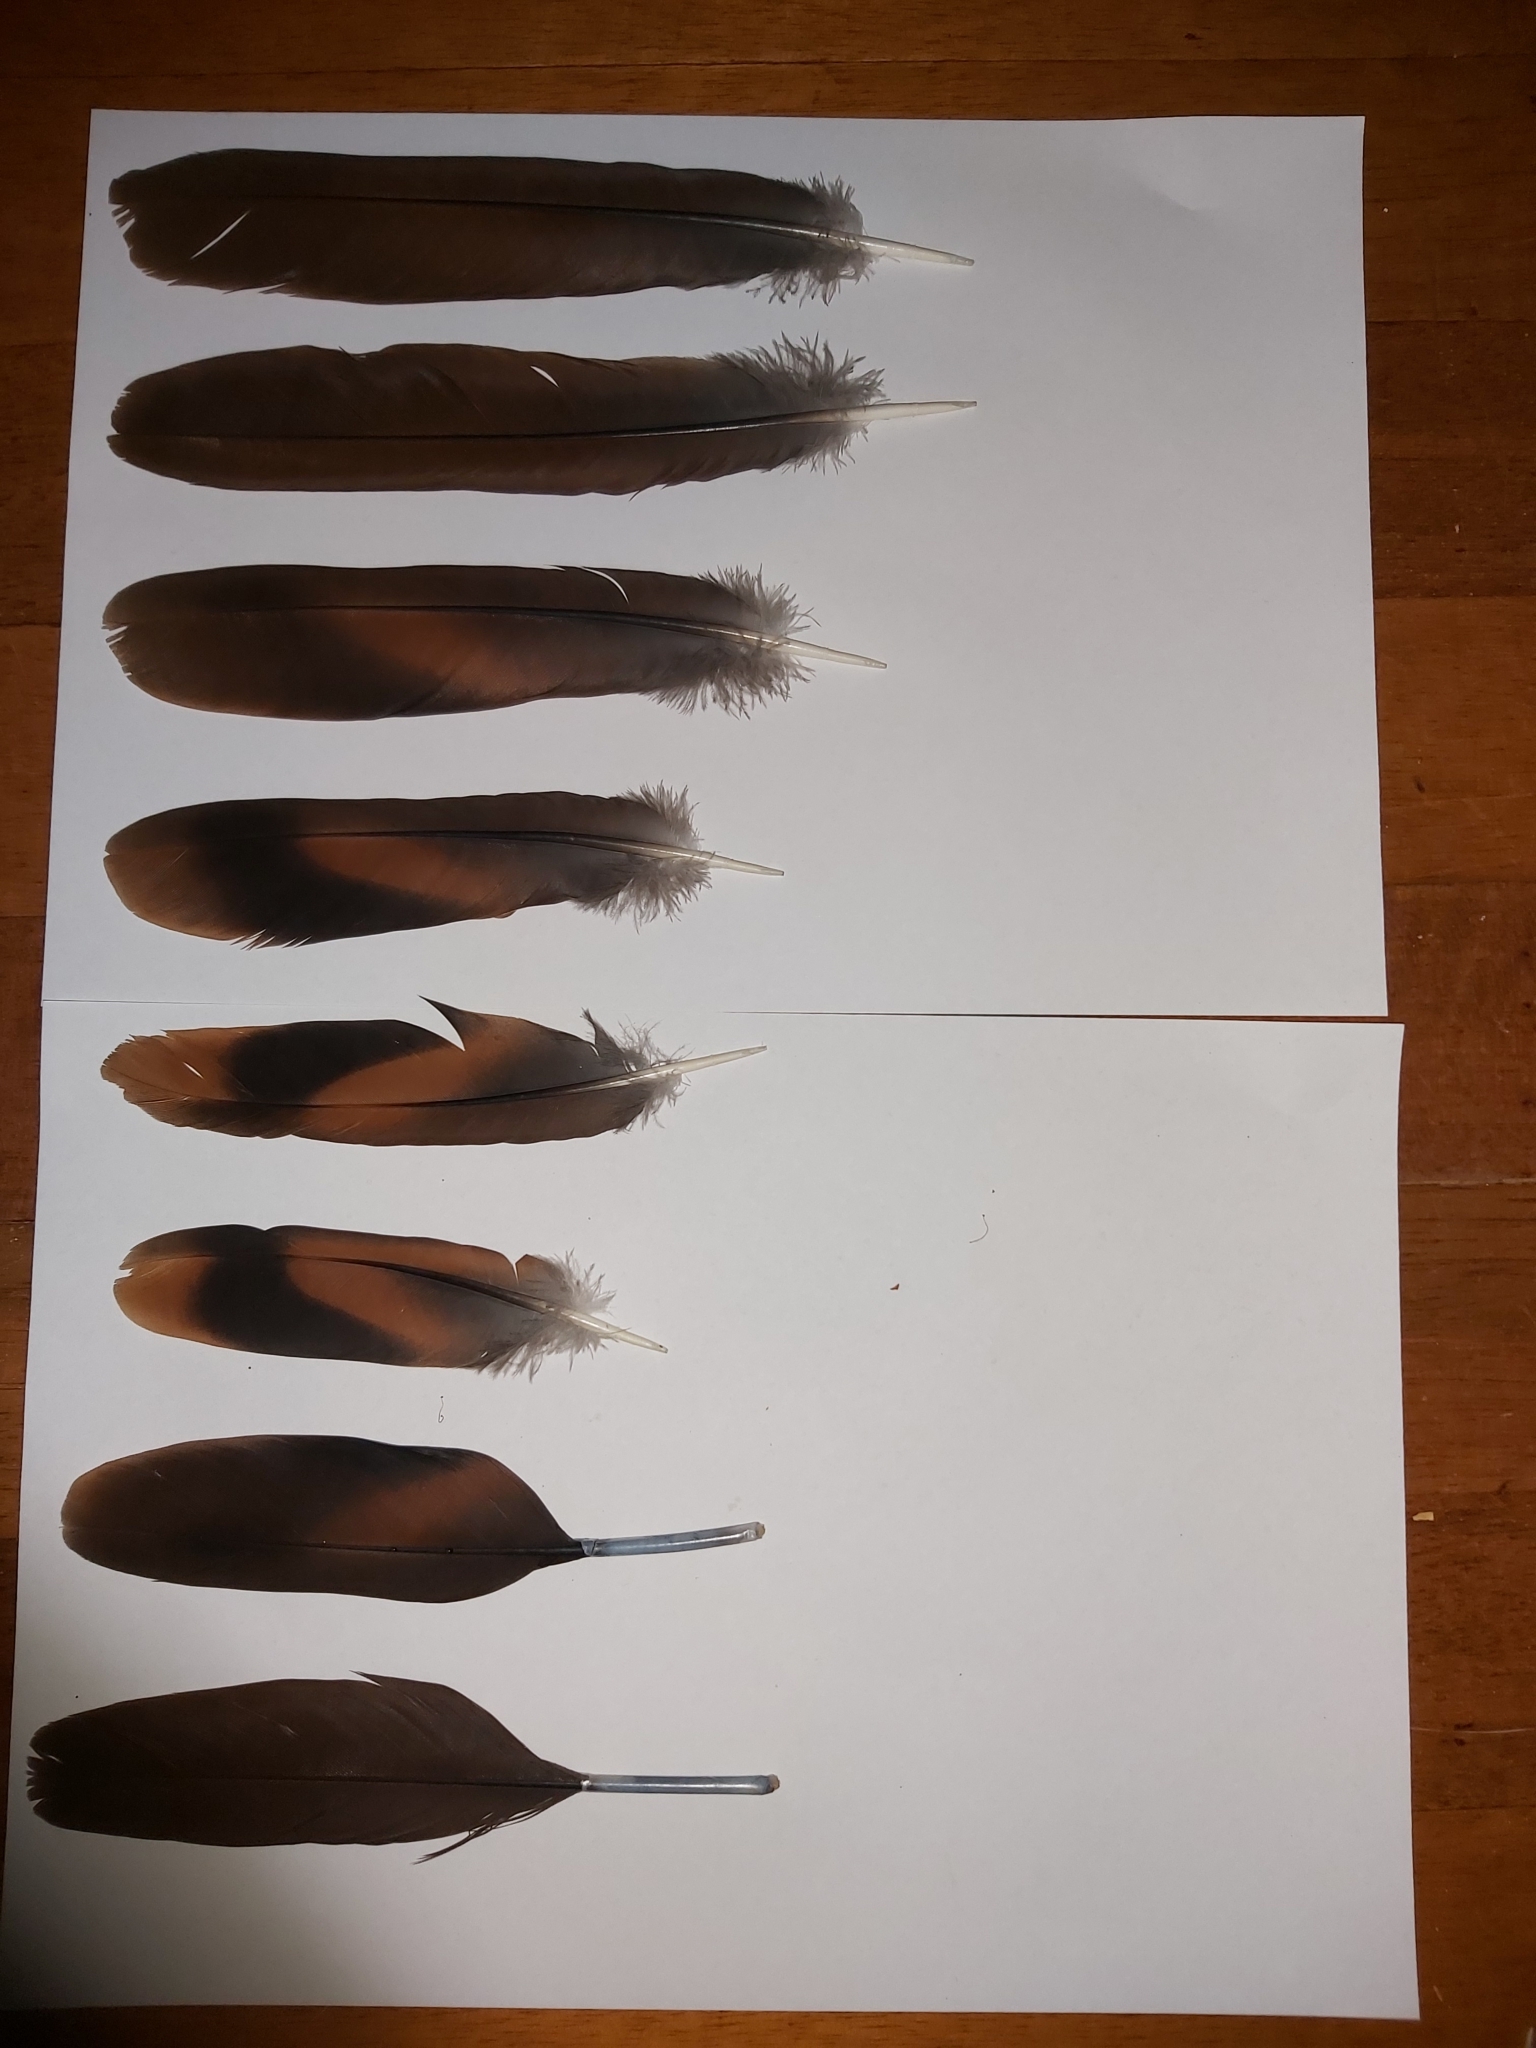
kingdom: Animalia
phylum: Chordata
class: Aves
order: Columbiformes
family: Columbidae
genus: Macropygia
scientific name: Macropygia phasianella
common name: Brown cuckoo-dove
